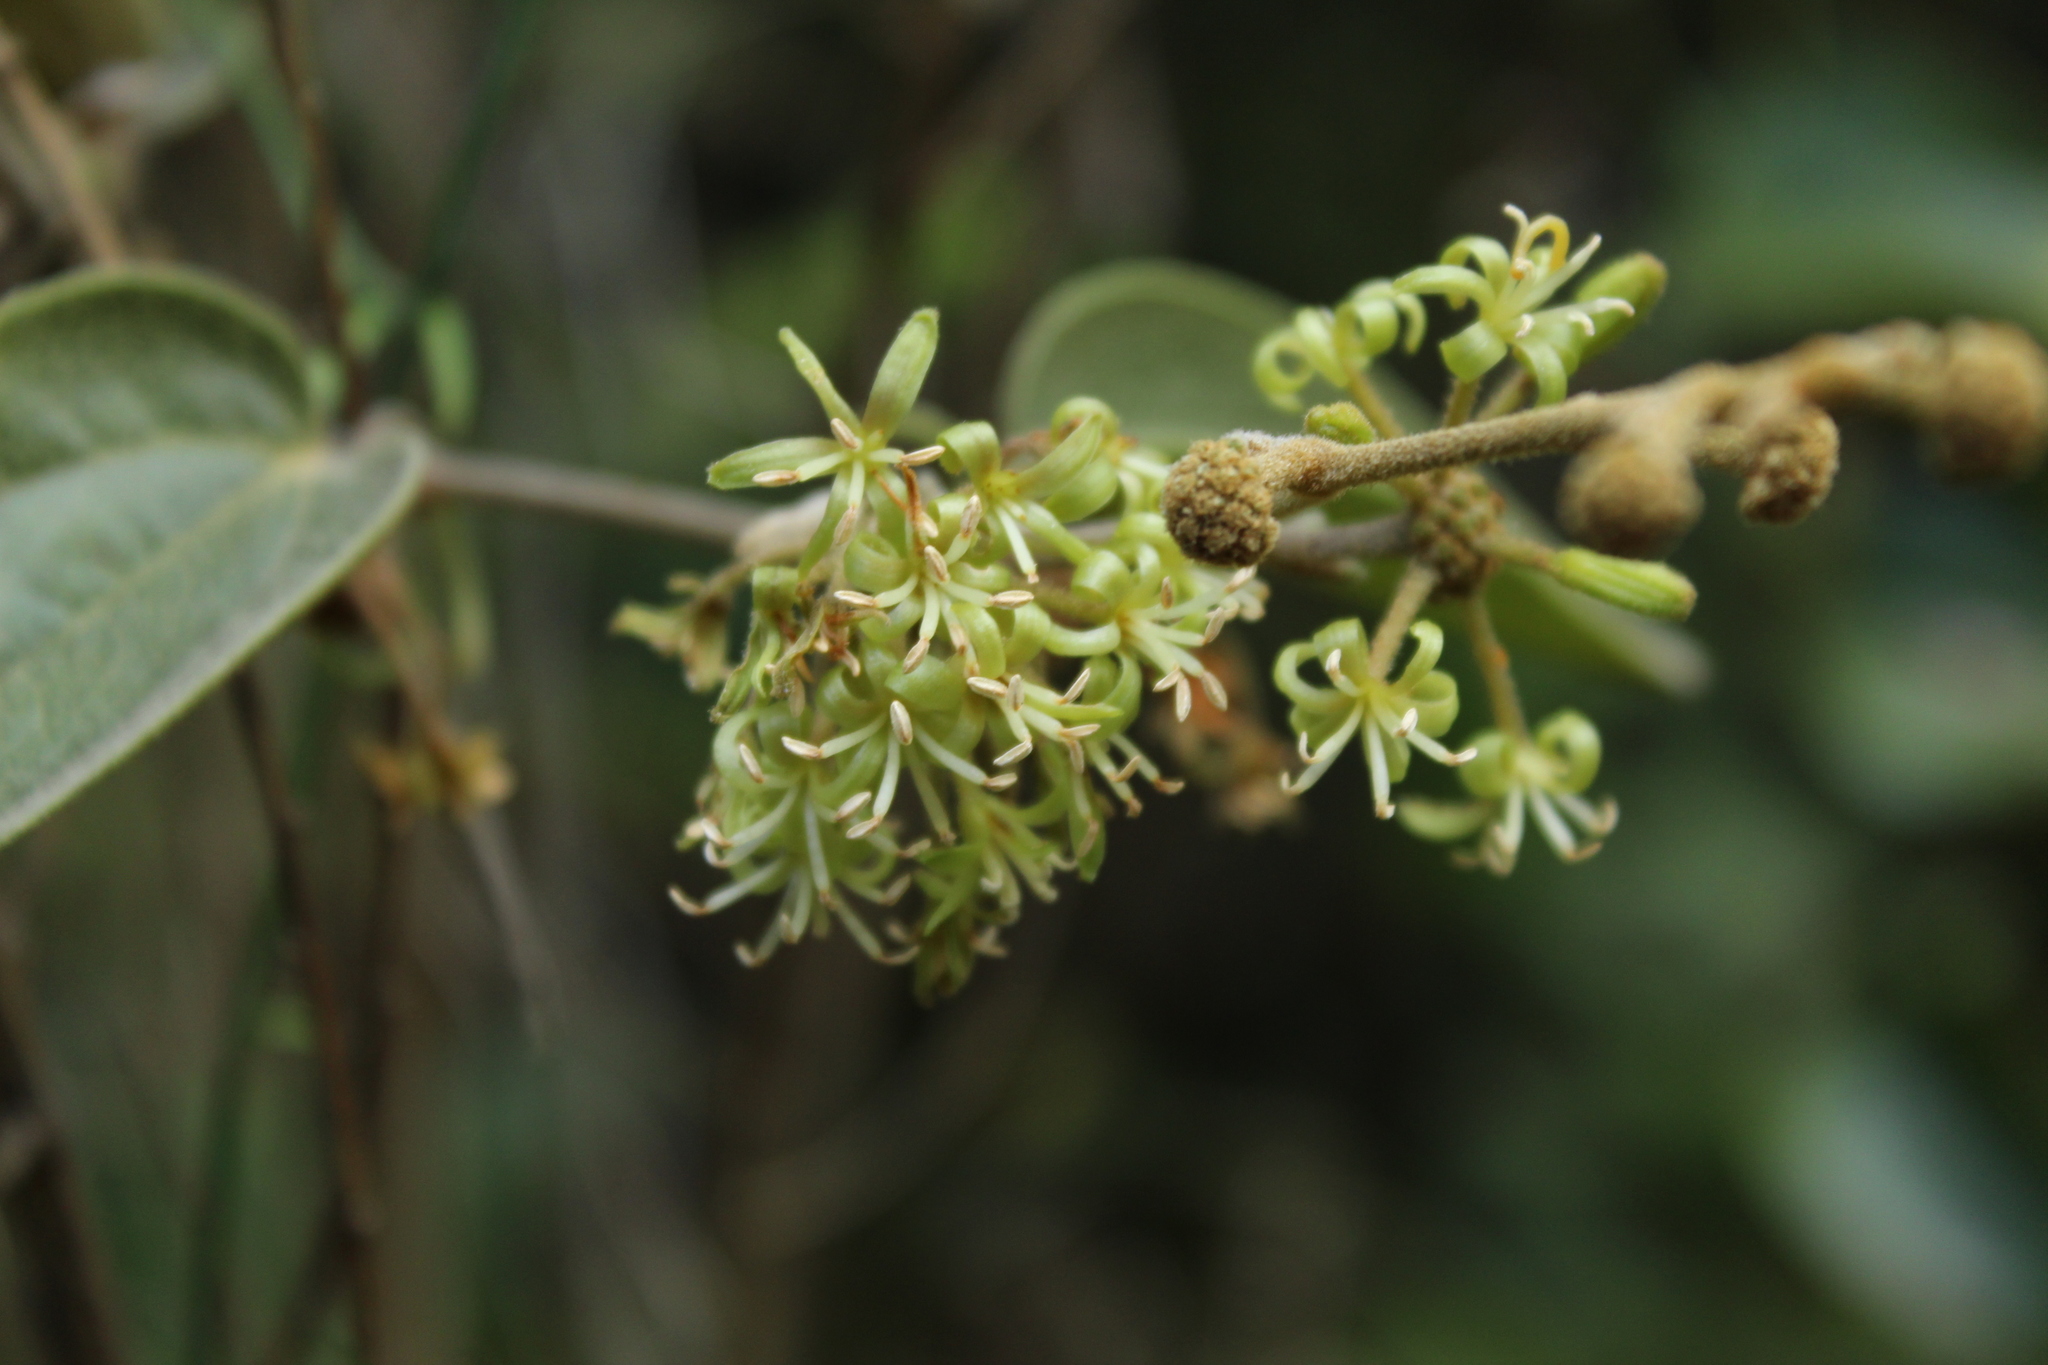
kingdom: Plantae
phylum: Tracheophyta
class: Liliopsida
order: Liliales
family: Smilacaceae
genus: Smilax
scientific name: Smilax tomentosa
